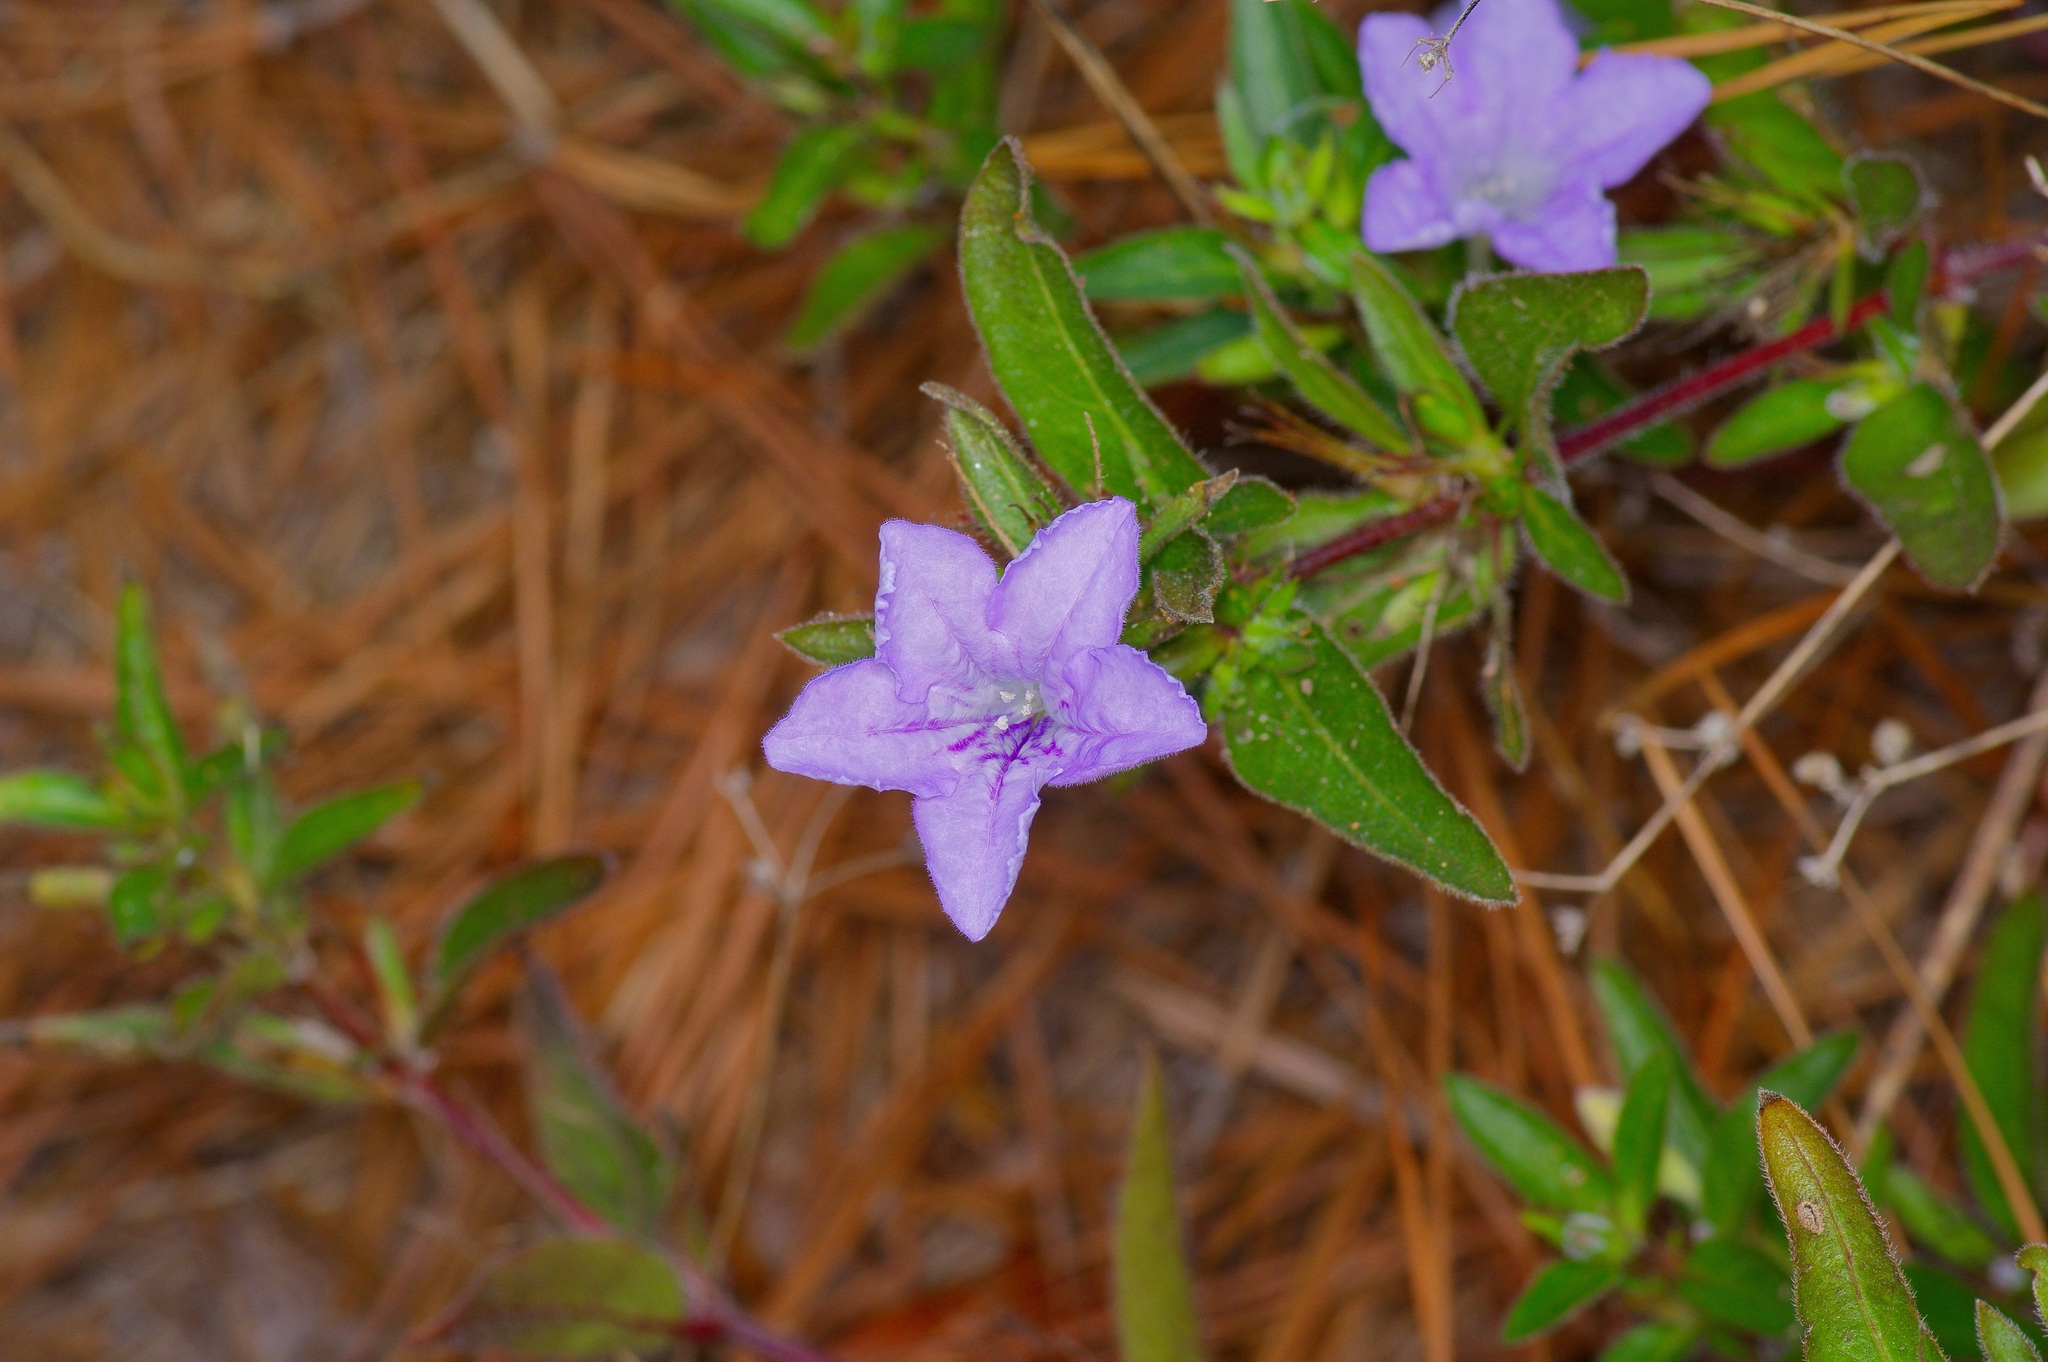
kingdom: Plantae
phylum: Tracheophyta
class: Magnoliopsida
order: Lamiales
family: Acanthaceae
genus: Ruellia
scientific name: Ruellia humilis
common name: Fringe-leaf ruellia
